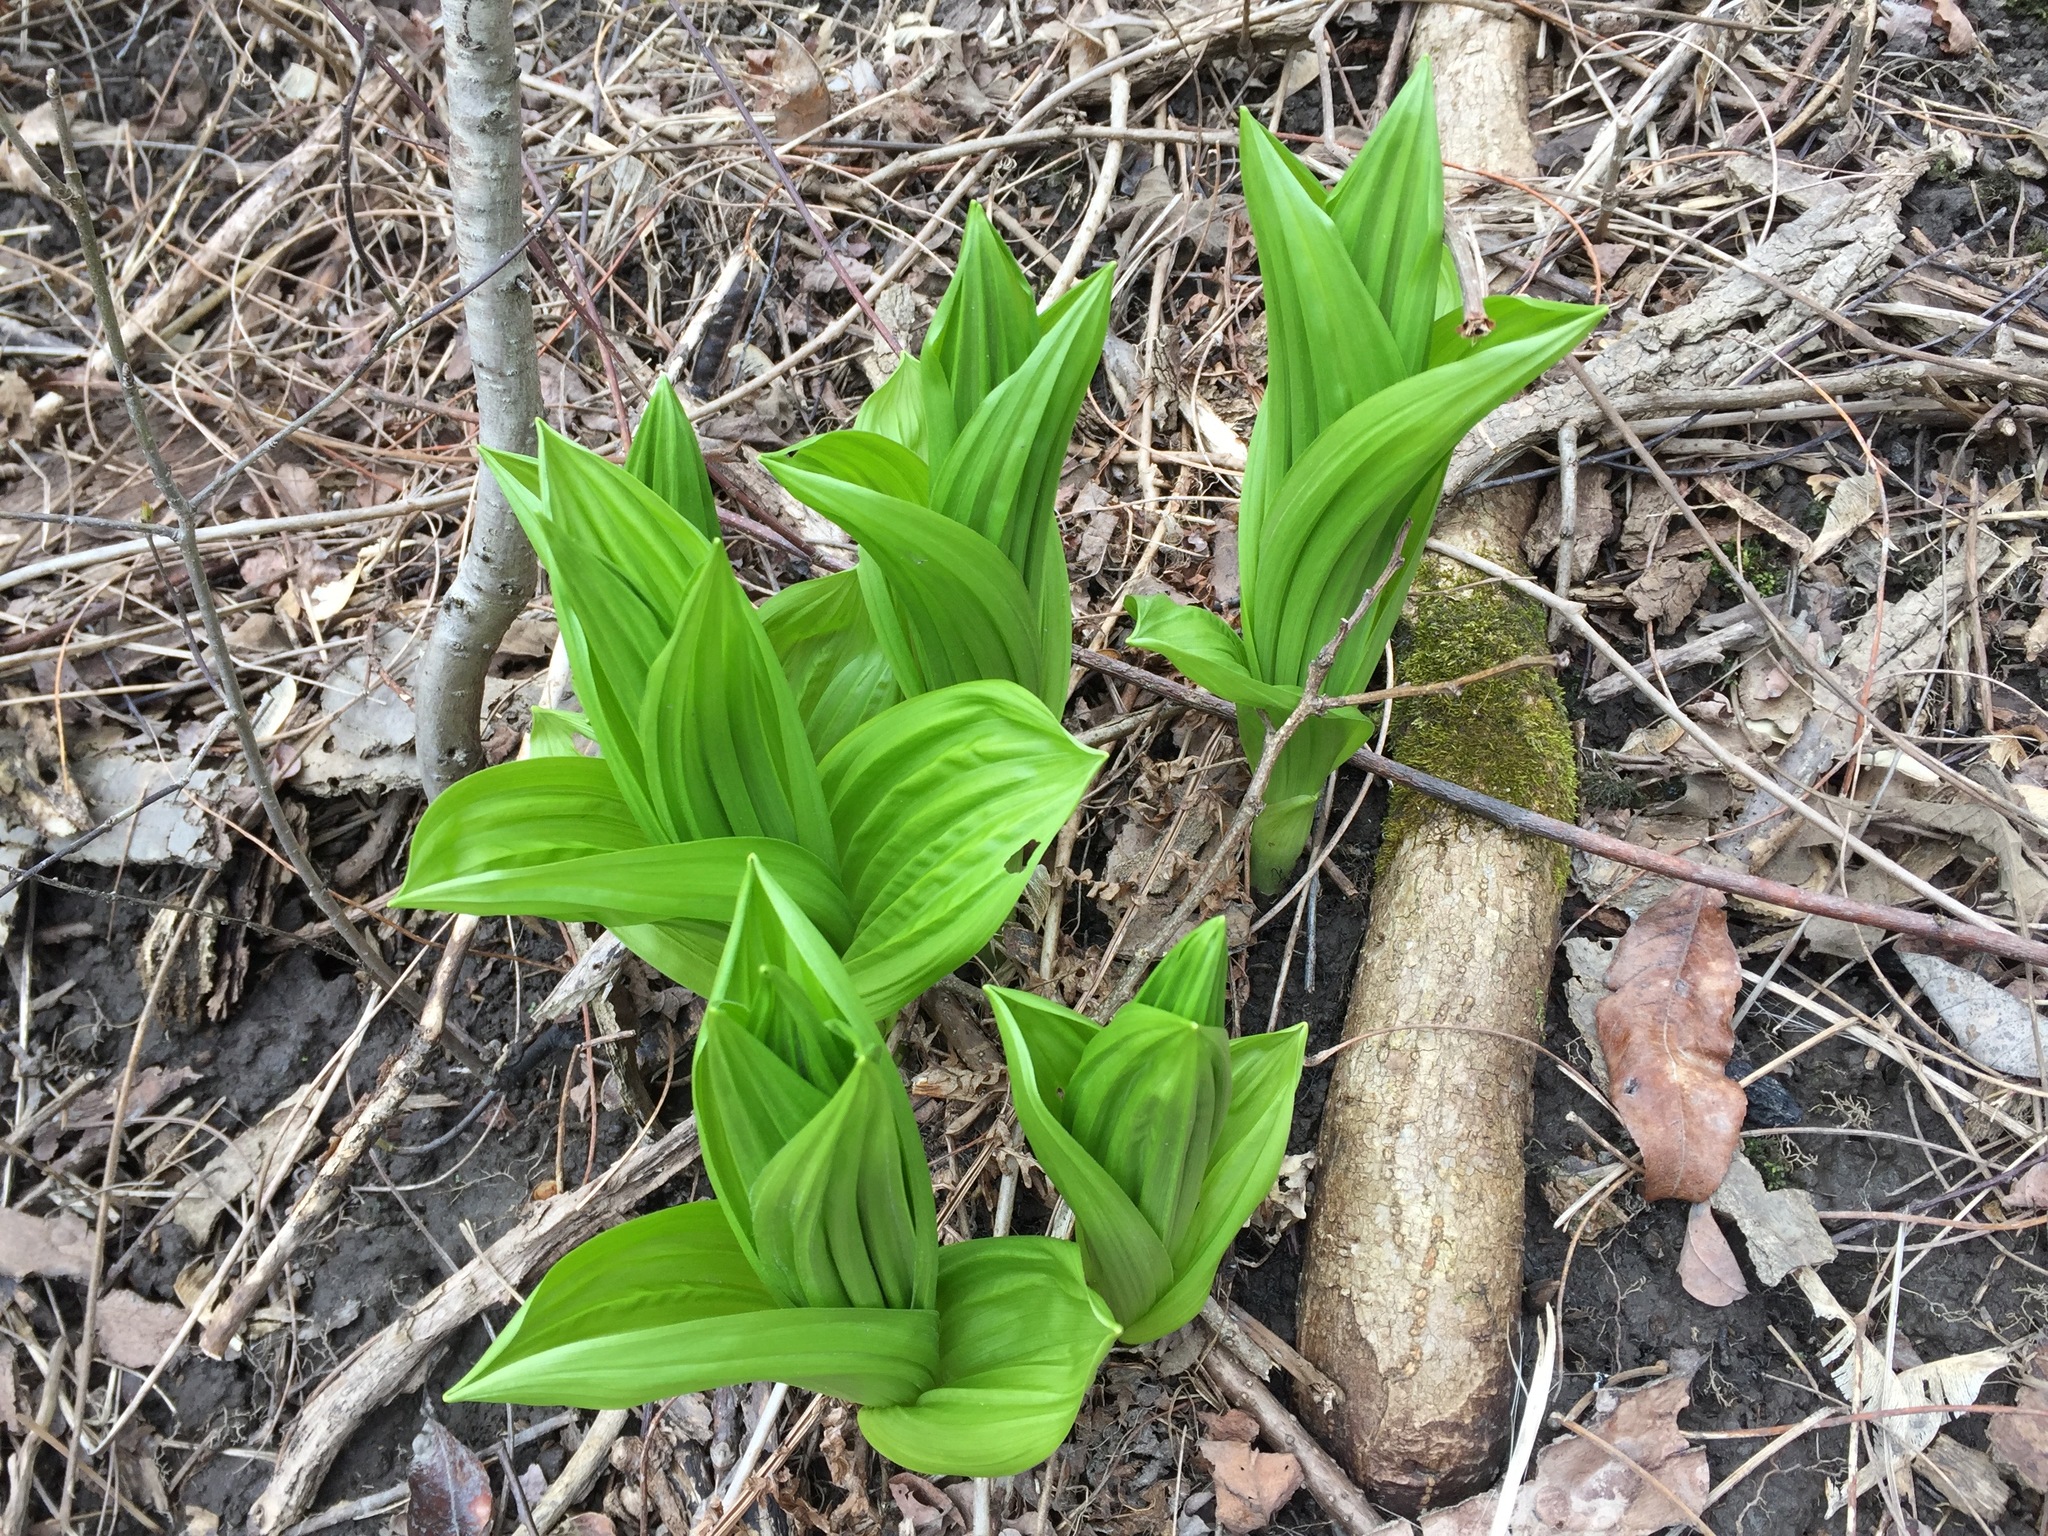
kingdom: Plantae
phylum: Tracheophyta
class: Liliopsida
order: Liliales
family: Melanthiaceae
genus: Veratrum
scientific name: Veratrum viride
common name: American false hellebore
